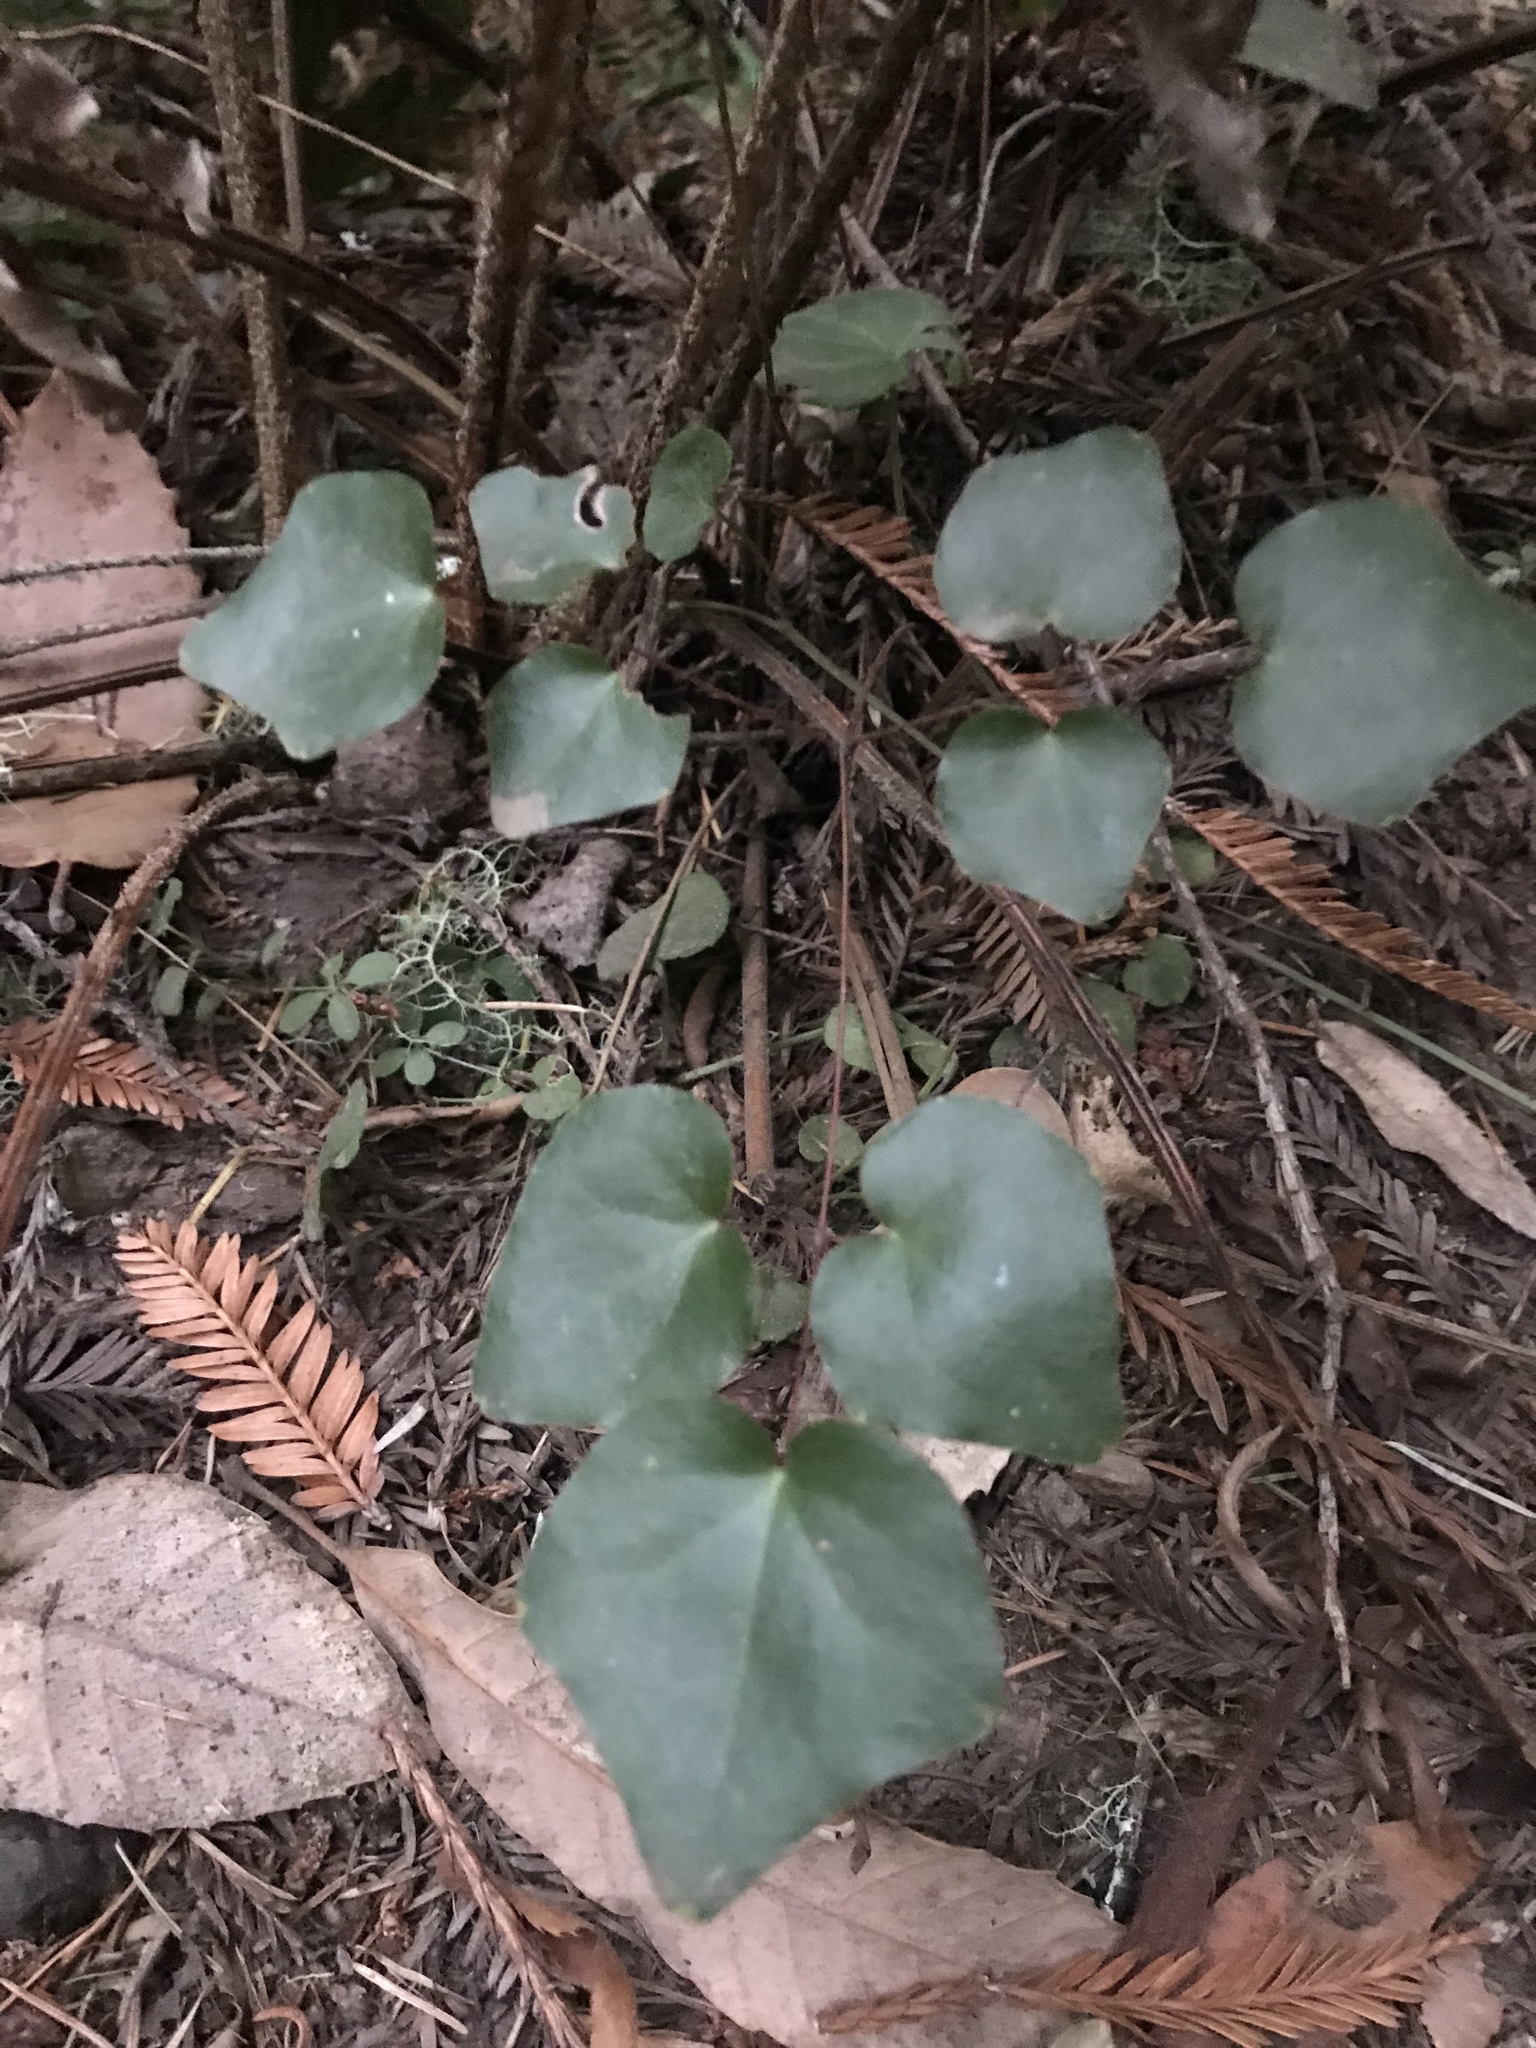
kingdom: Plantae
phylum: Tracheophyta
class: Magnoliopsida
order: Ranunculales
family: Berberidaceae
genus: Vancouveria
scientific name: Vancouveria planipetala
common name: Redwood-ivy
